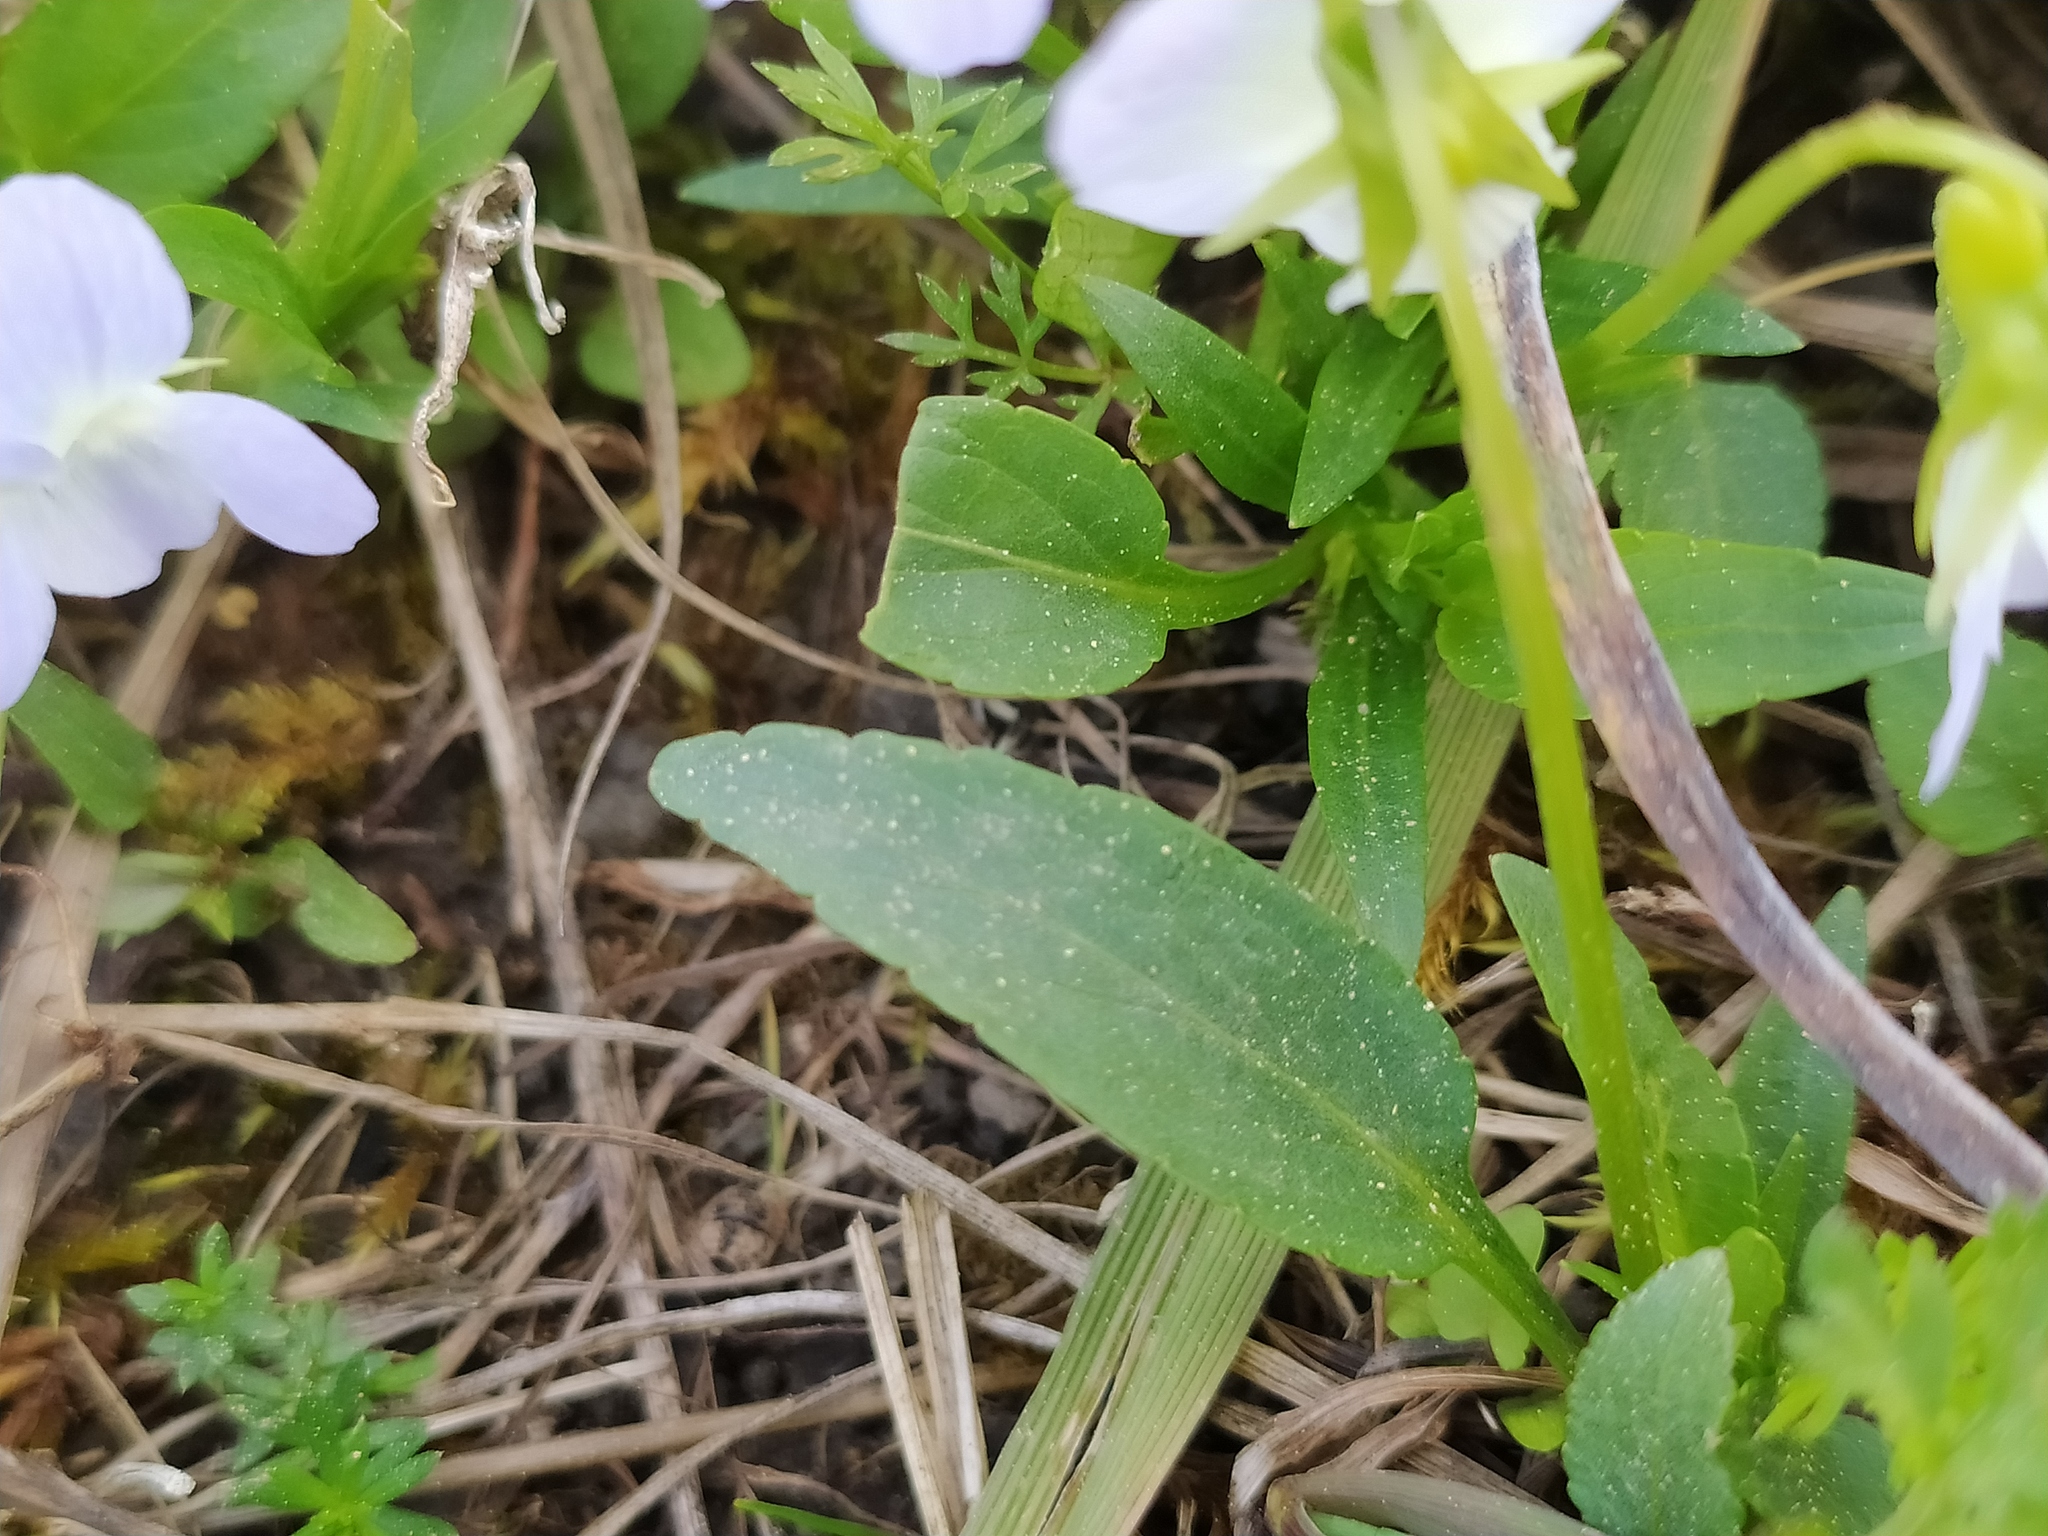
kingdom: Plantae
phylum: Tracheophyta
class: Magnoliopsida
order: Malpighiales
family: Violaceae
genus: Viola
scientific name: Viola pumila
